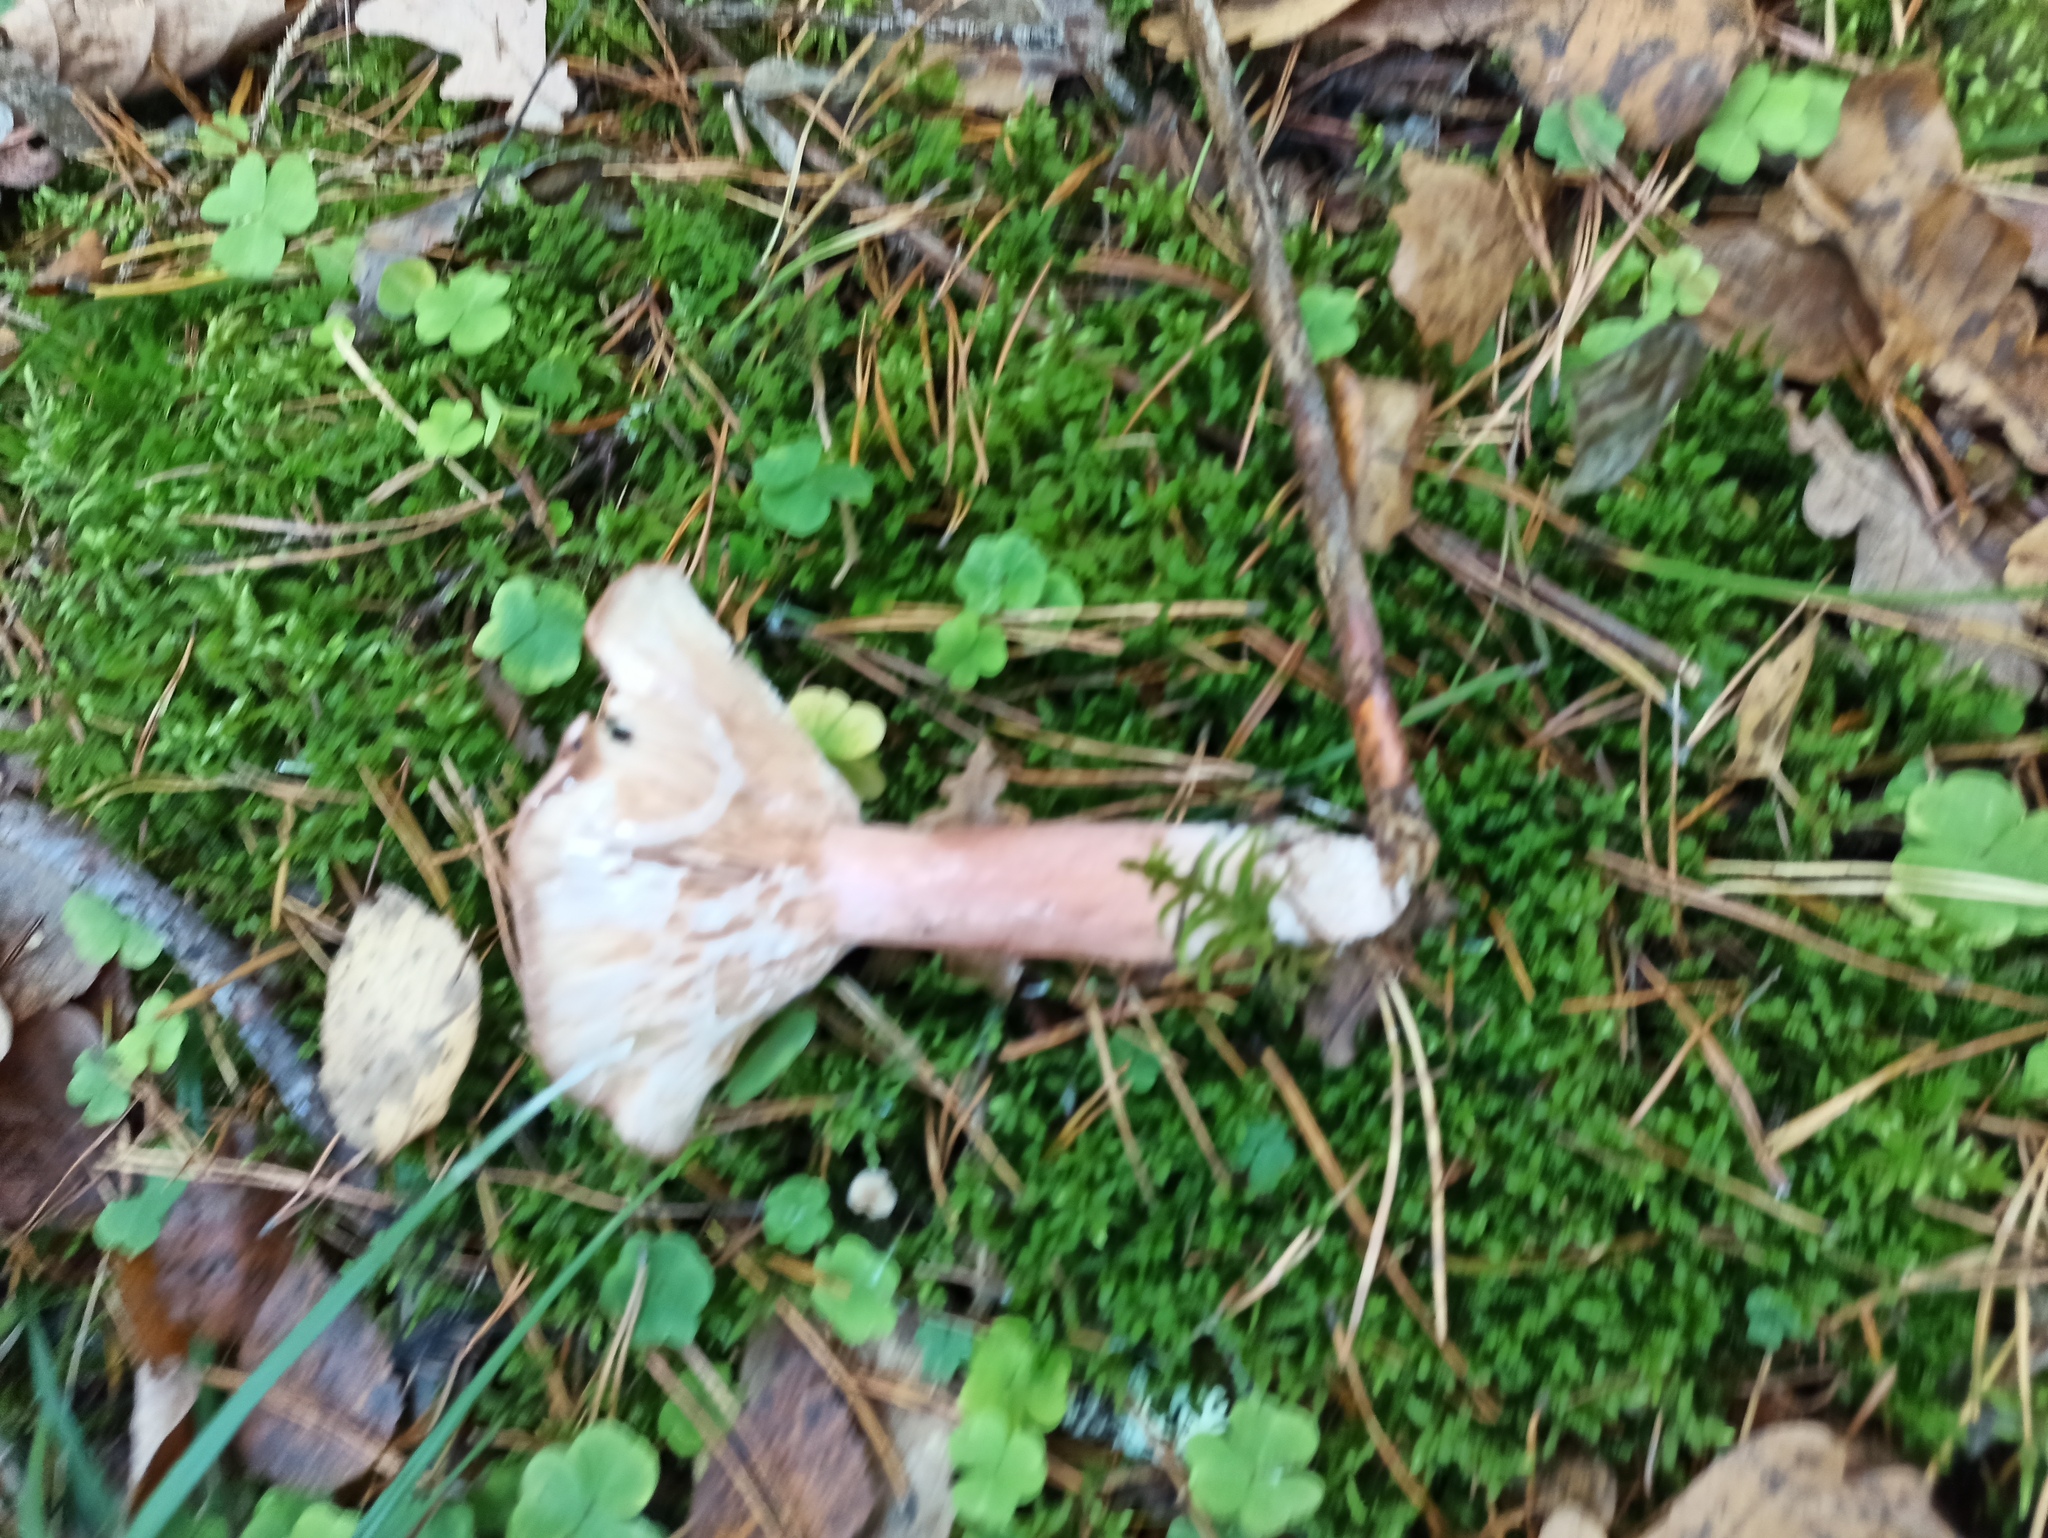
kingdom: Fungi
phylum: Basidiomycota
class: Agaricomycetes
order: Russulales
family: Russulaceae
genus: Lactarius
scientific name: Lactarius rufus
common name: Rufous milk-cap
